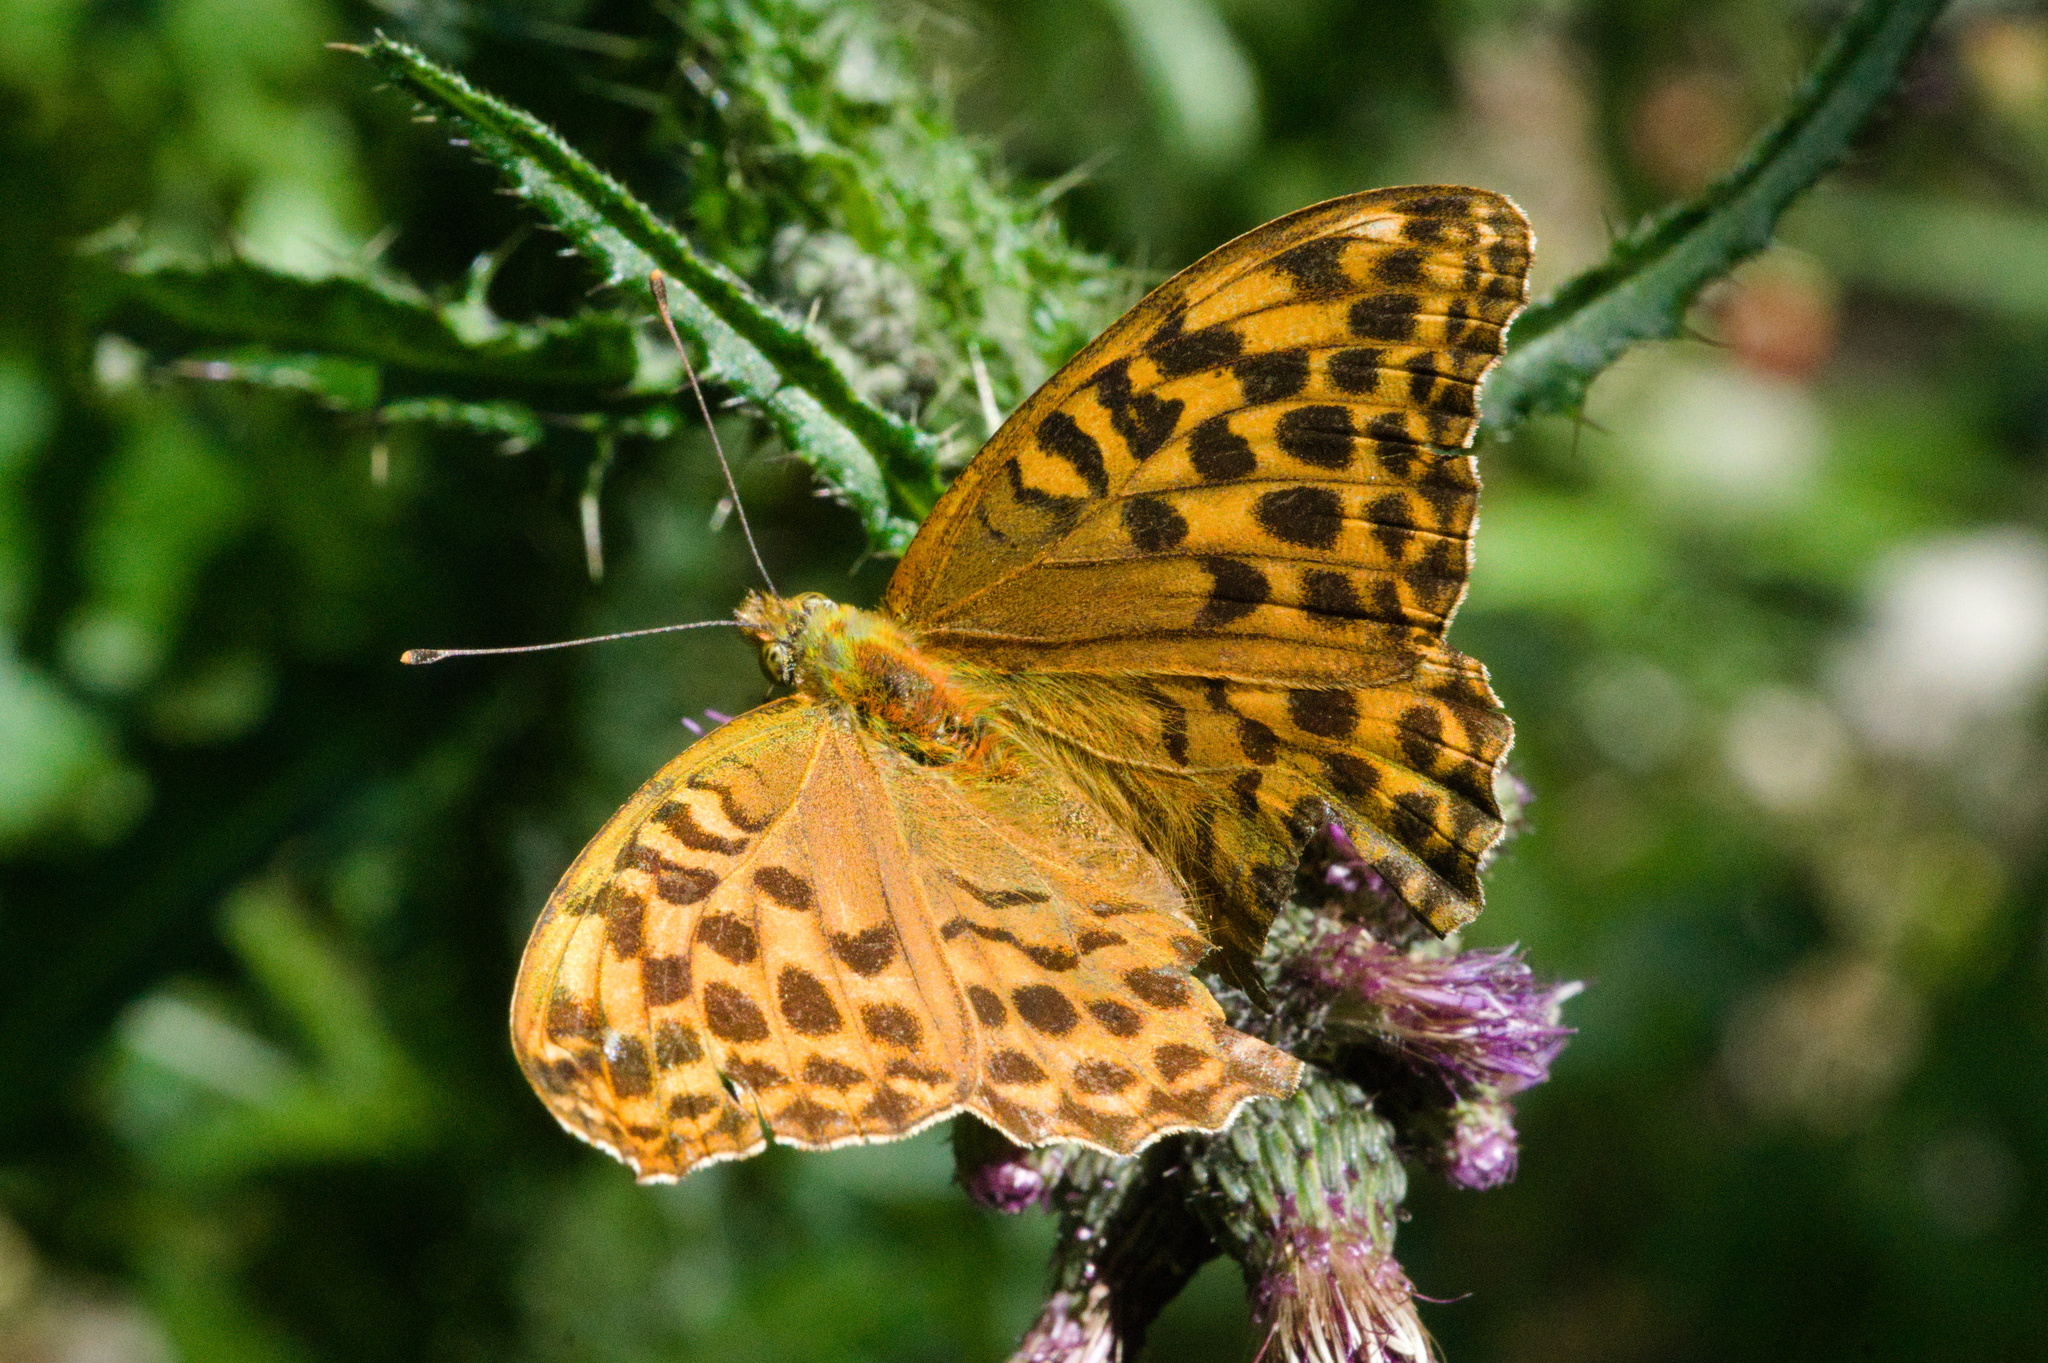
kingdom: Animalia
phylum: Arthropoda
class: Insecta
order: Lepidoptera
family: Nymphalidae
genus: Argynnis
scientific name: Argynnis paphia
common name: Silver-washed fritillary
